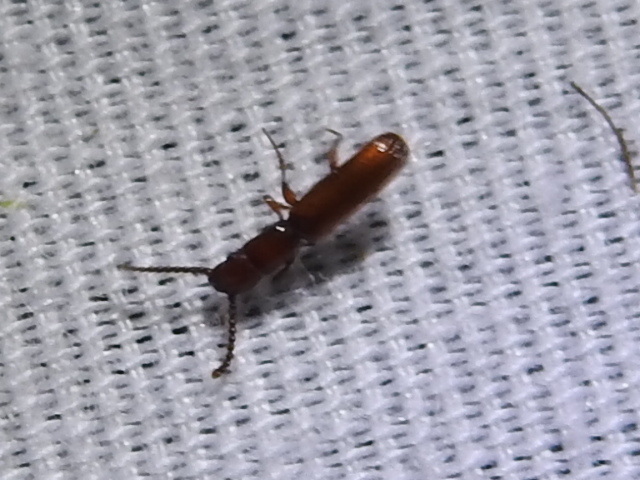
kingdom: Animalia
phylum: Arthropoda
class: Insecta
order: Coleoptera
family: Passandridae
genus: Taphroscelidia
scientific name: Taphroscelidia linearis
